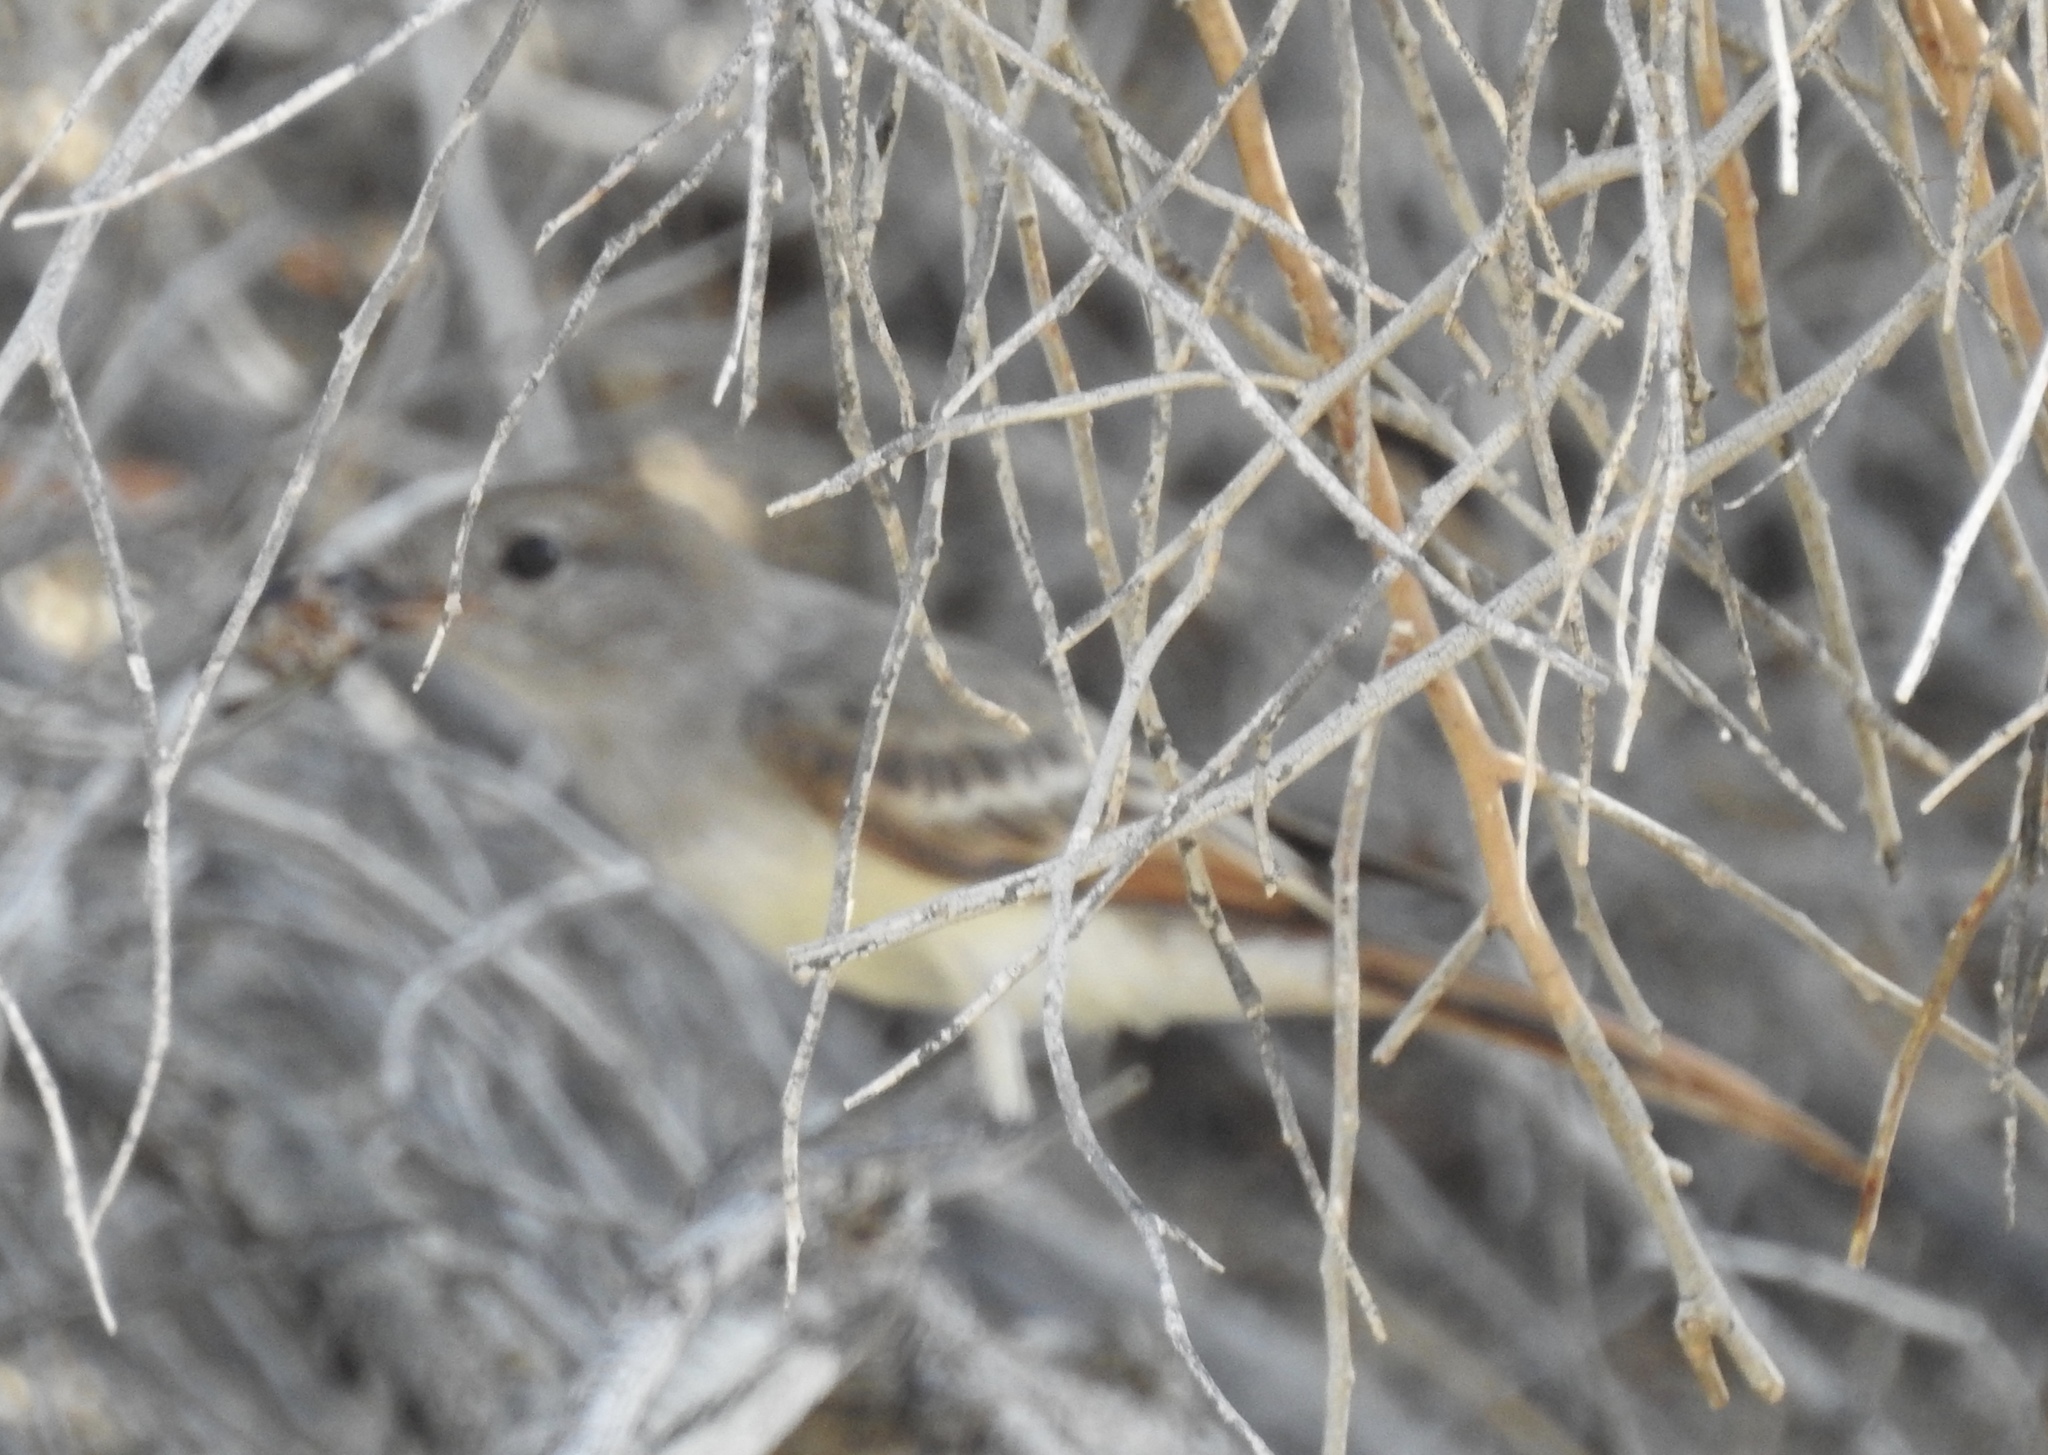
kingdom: Animalia
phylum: Chordata
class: Aves
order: Passeriformes
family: Tyrannidae
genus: Myiarchus
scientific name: Myiarchus cinerascens
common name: Ash-throated flycatcher
